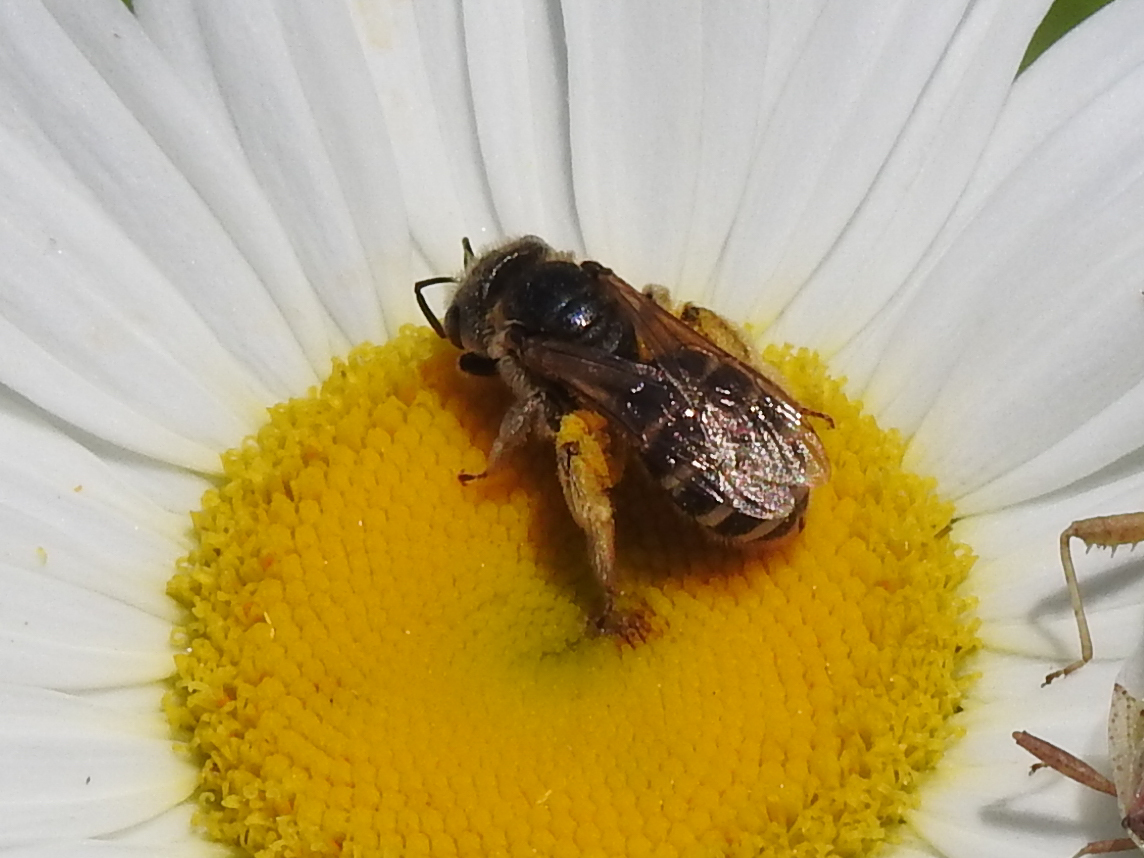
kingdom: Animalia
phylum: Arthropoda
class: Insecta
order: Hymenoptera
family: Halictidae
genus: Halictus
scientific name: Halictus ligatus
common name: Ligated furrow bee
